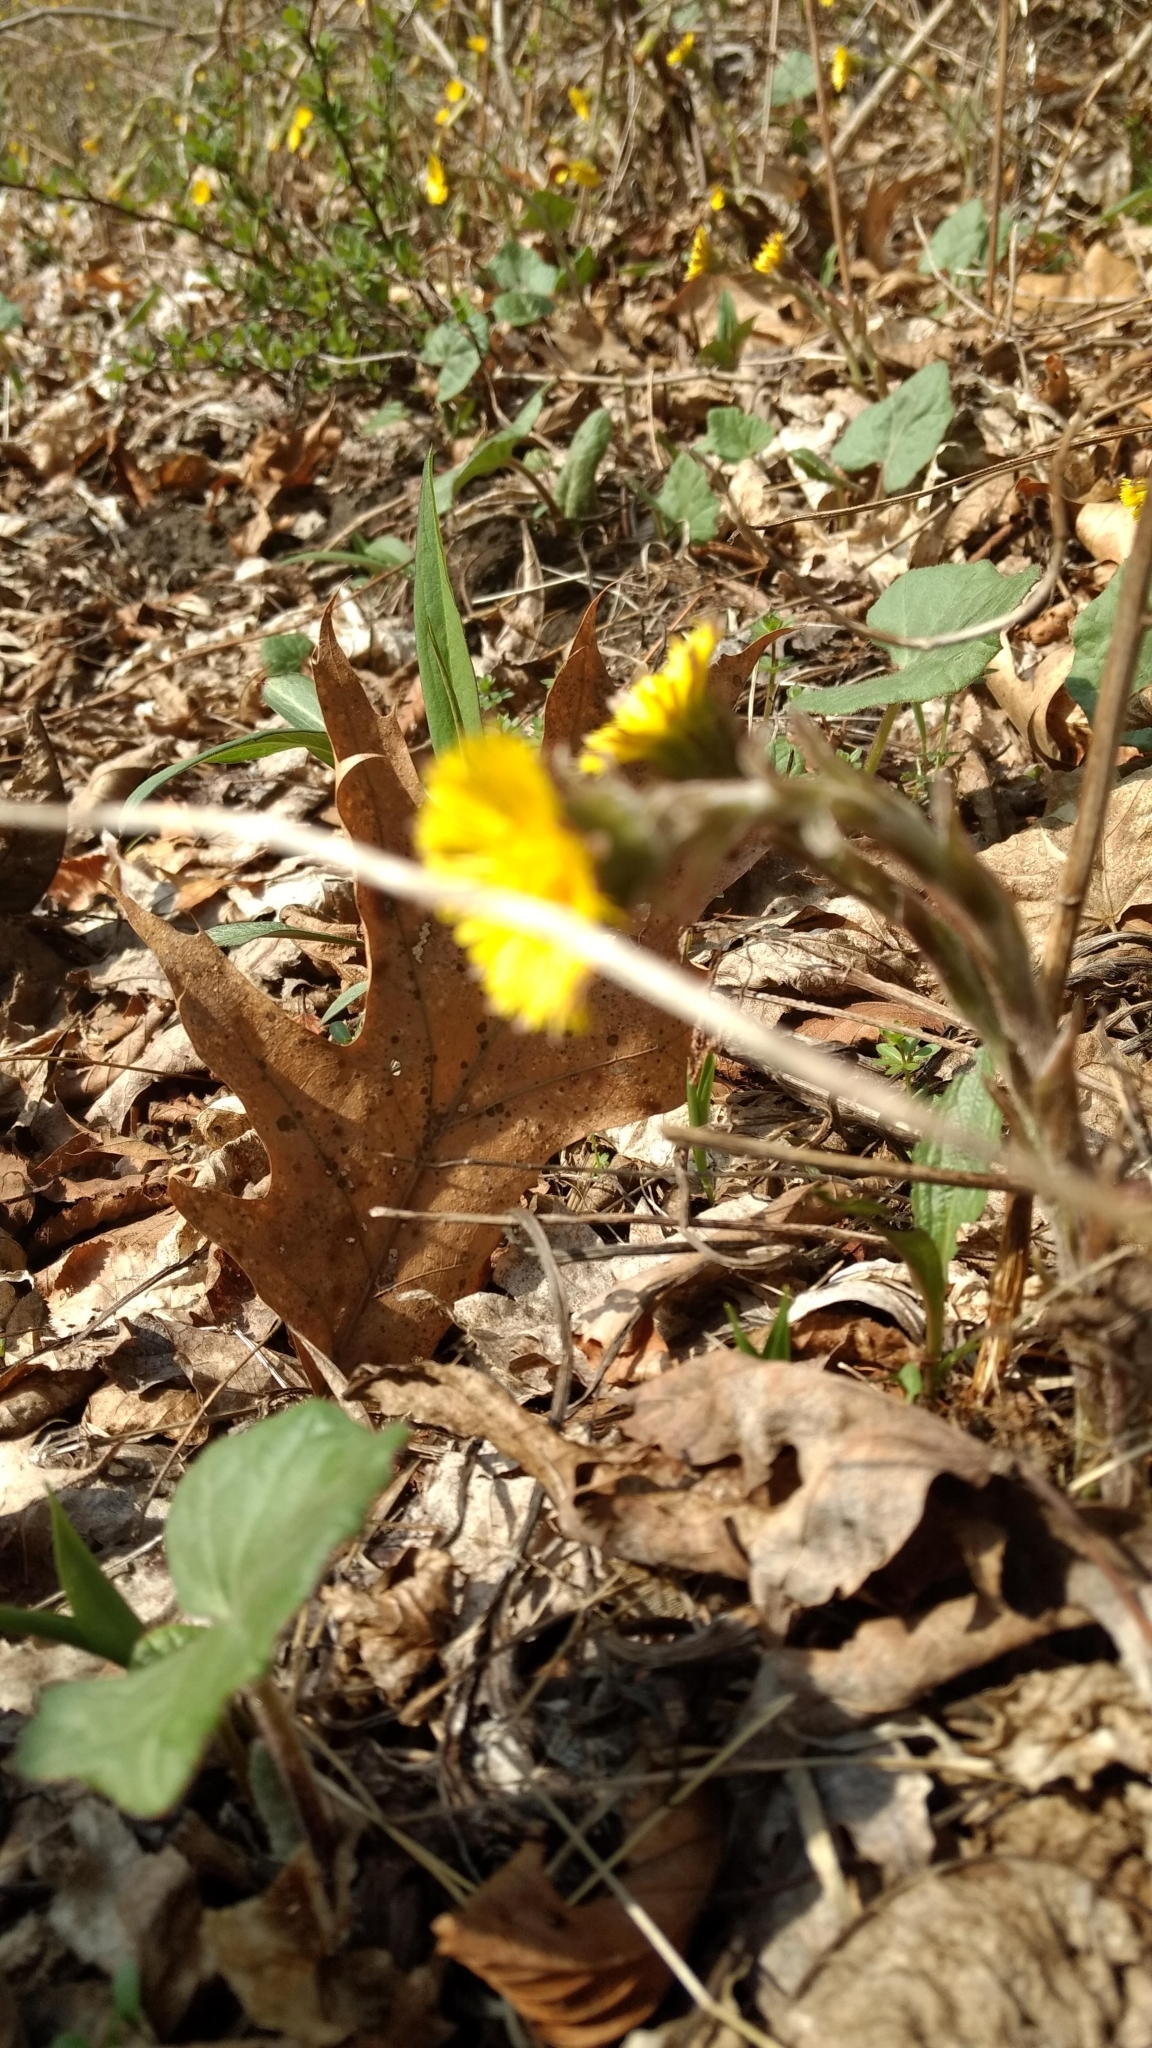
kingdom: Plantae
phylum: Tracheophyta
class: Magnoliopsida
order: Asterales
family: Asteraceae
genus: Tussilago
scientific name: Tussilago farfara
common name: Coltsfoot
